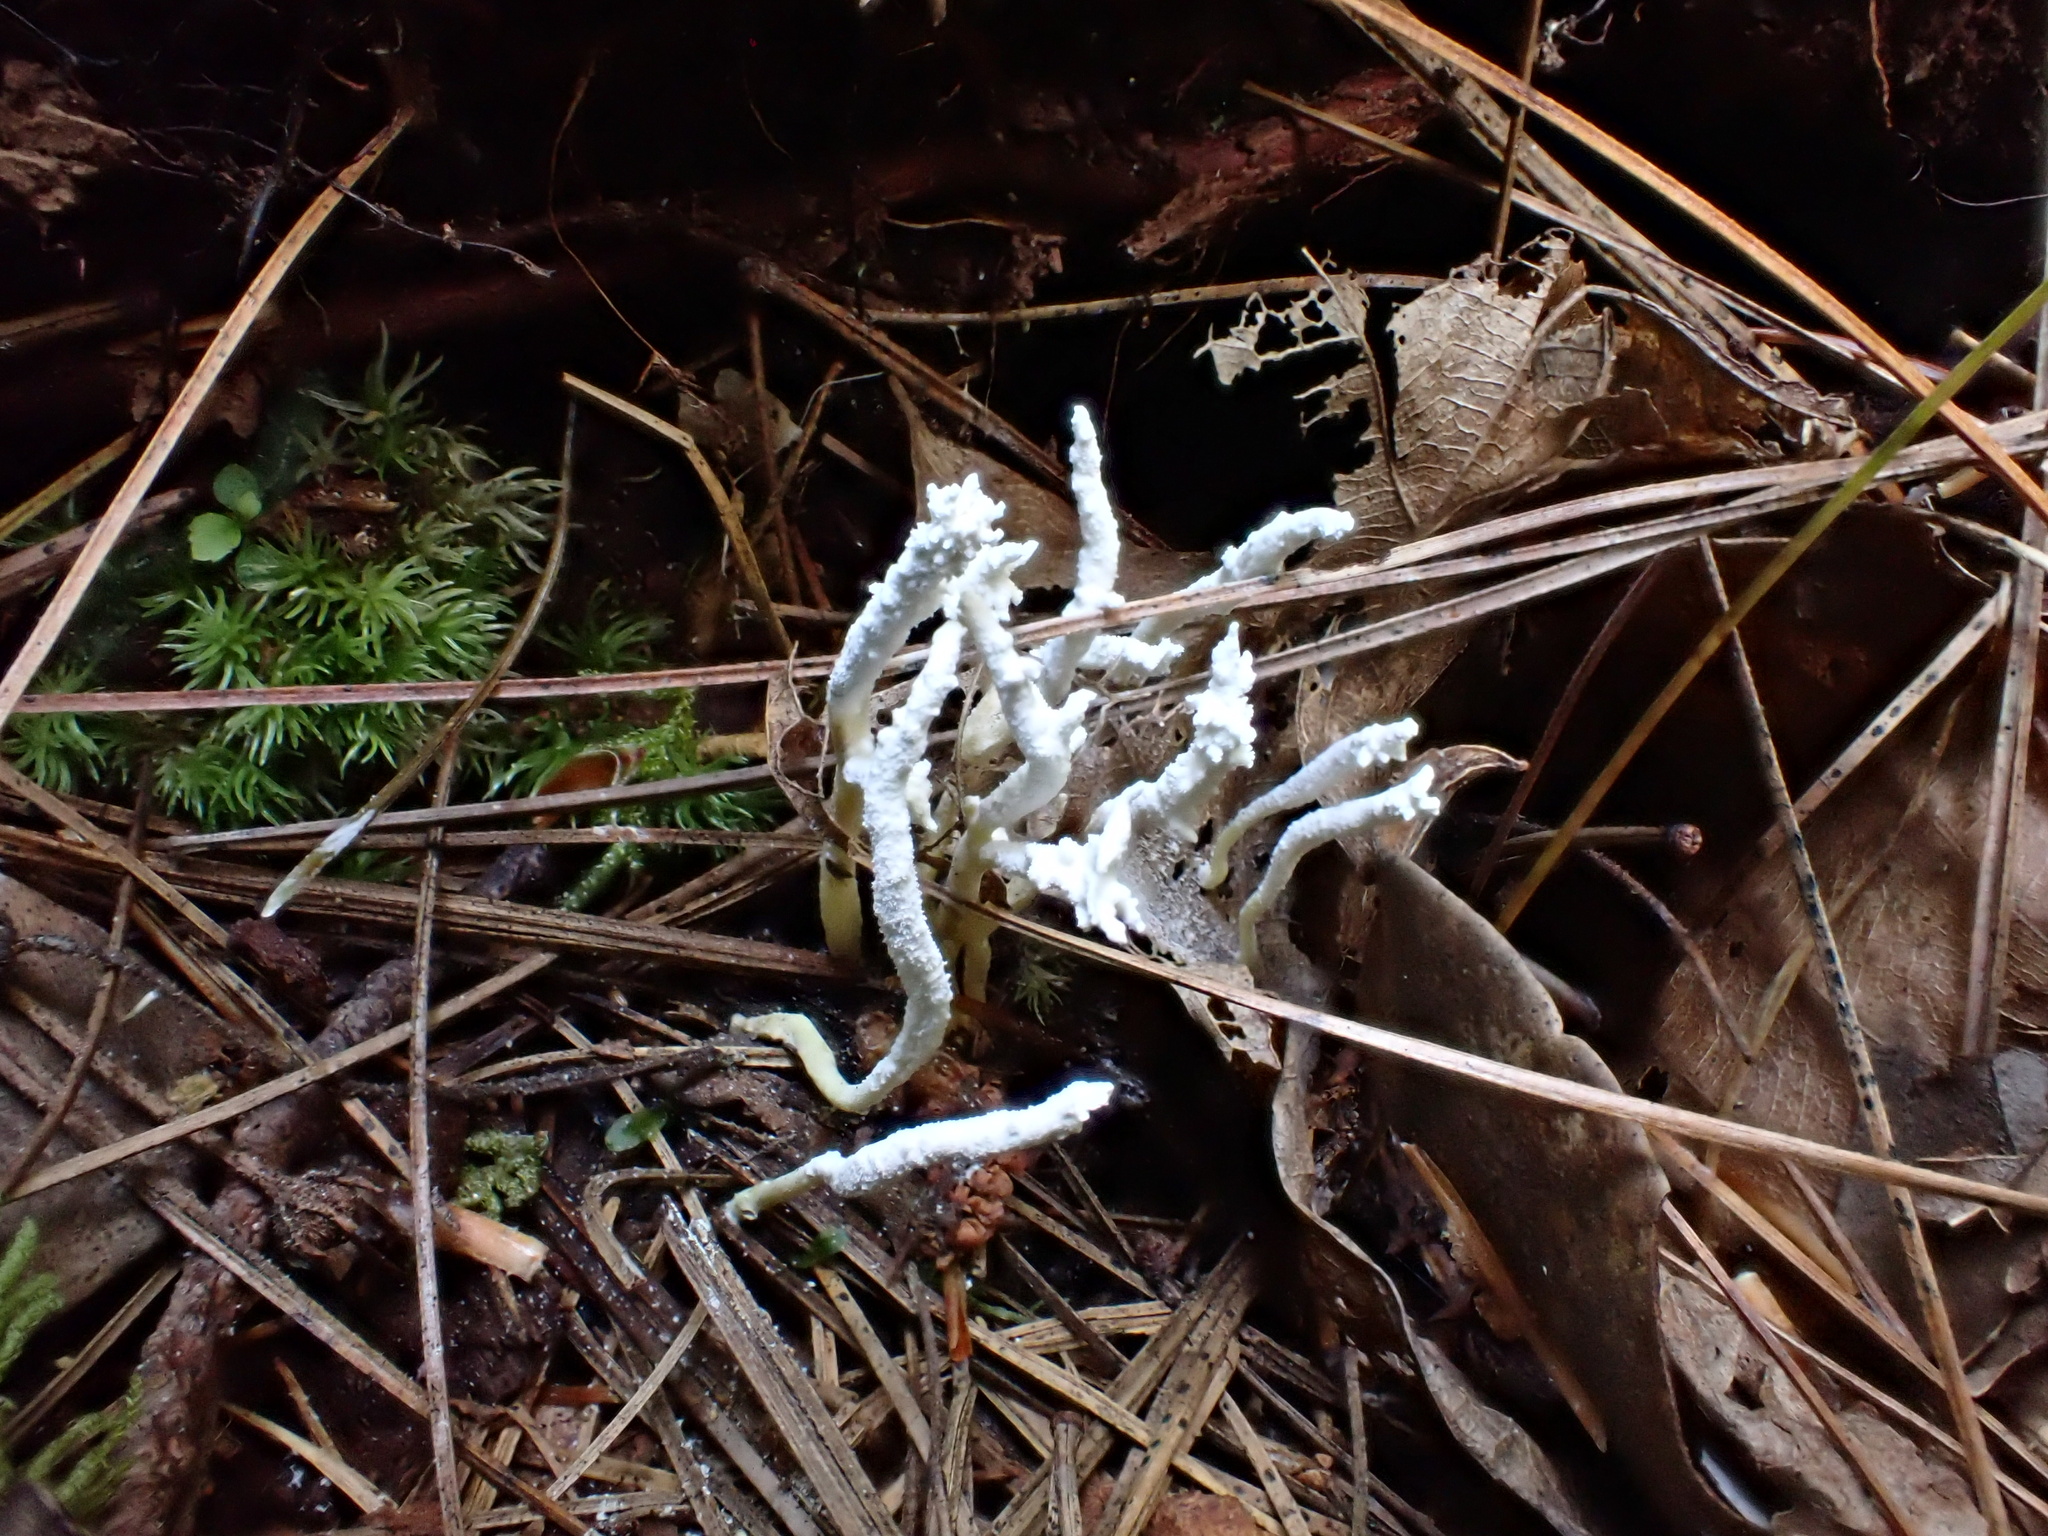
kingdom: Fungi
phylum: Ascomycota
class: Sordariomycetes
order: Hypocreales
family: Cordycipitaceae
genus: Cordyceps
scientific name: Cordyceps tenuipes
